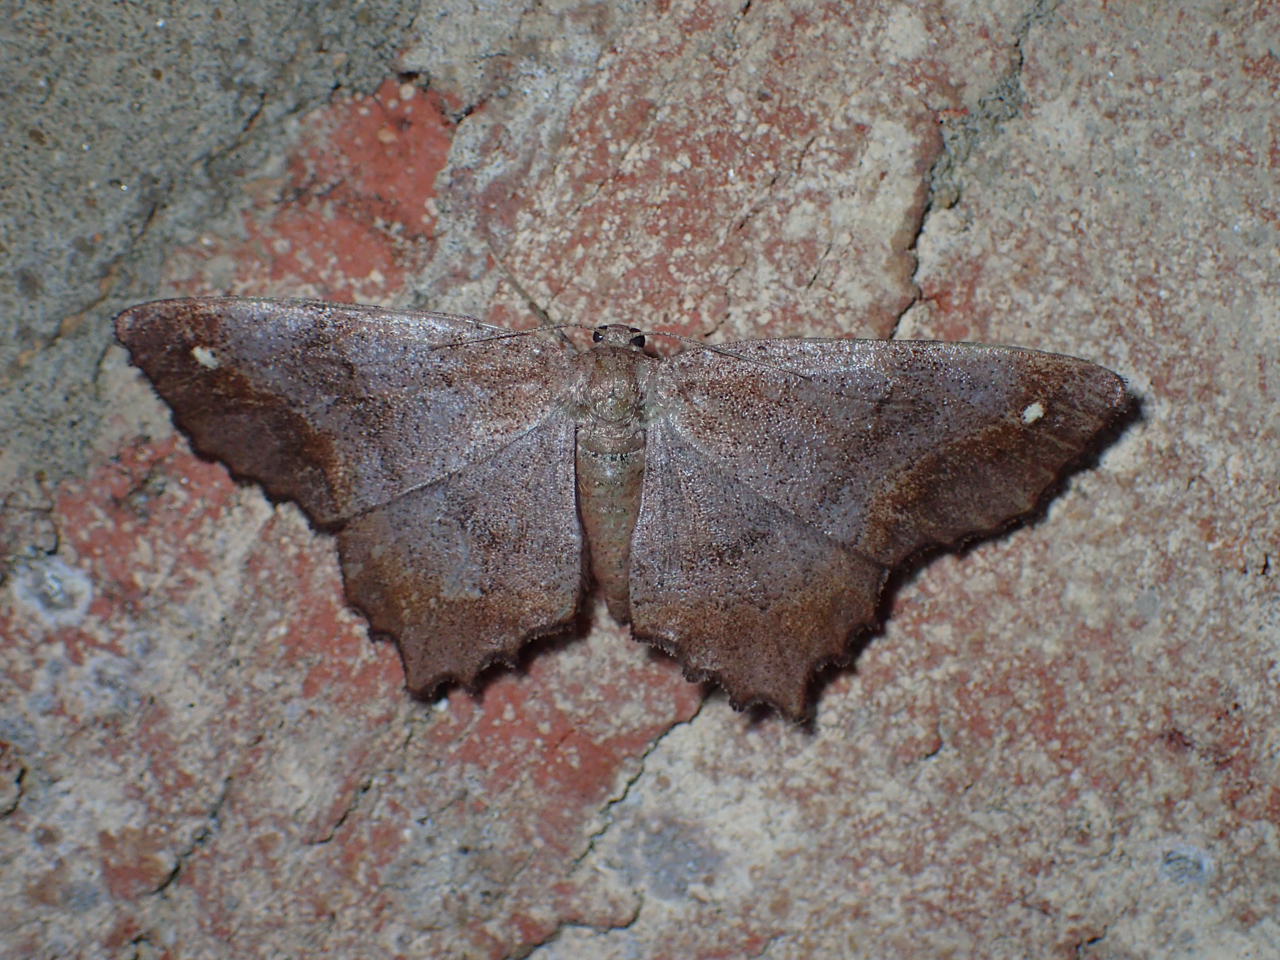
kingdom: Animalia
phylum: Arthropoda
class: Insecta
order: Lepidoptera
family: Geometridae
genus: Hypagyrtis
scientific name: Hypagyrtis unipunctata
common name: One-spotted variant
